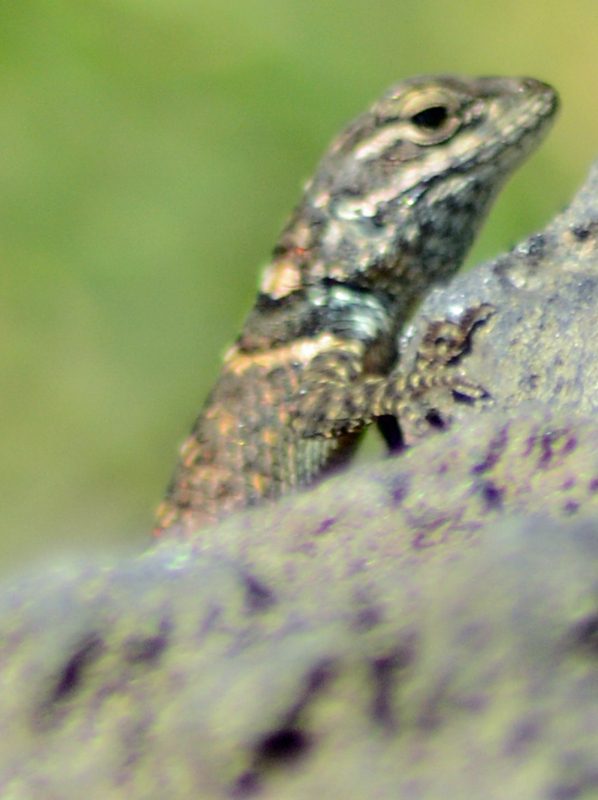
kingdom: Animalia
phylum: Chordata
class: Squamata
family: Phrynosomatidae
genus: Sceloporus
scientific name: Sceloporus torquatus
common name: Central plateau torquate lizard [melanogaster]
